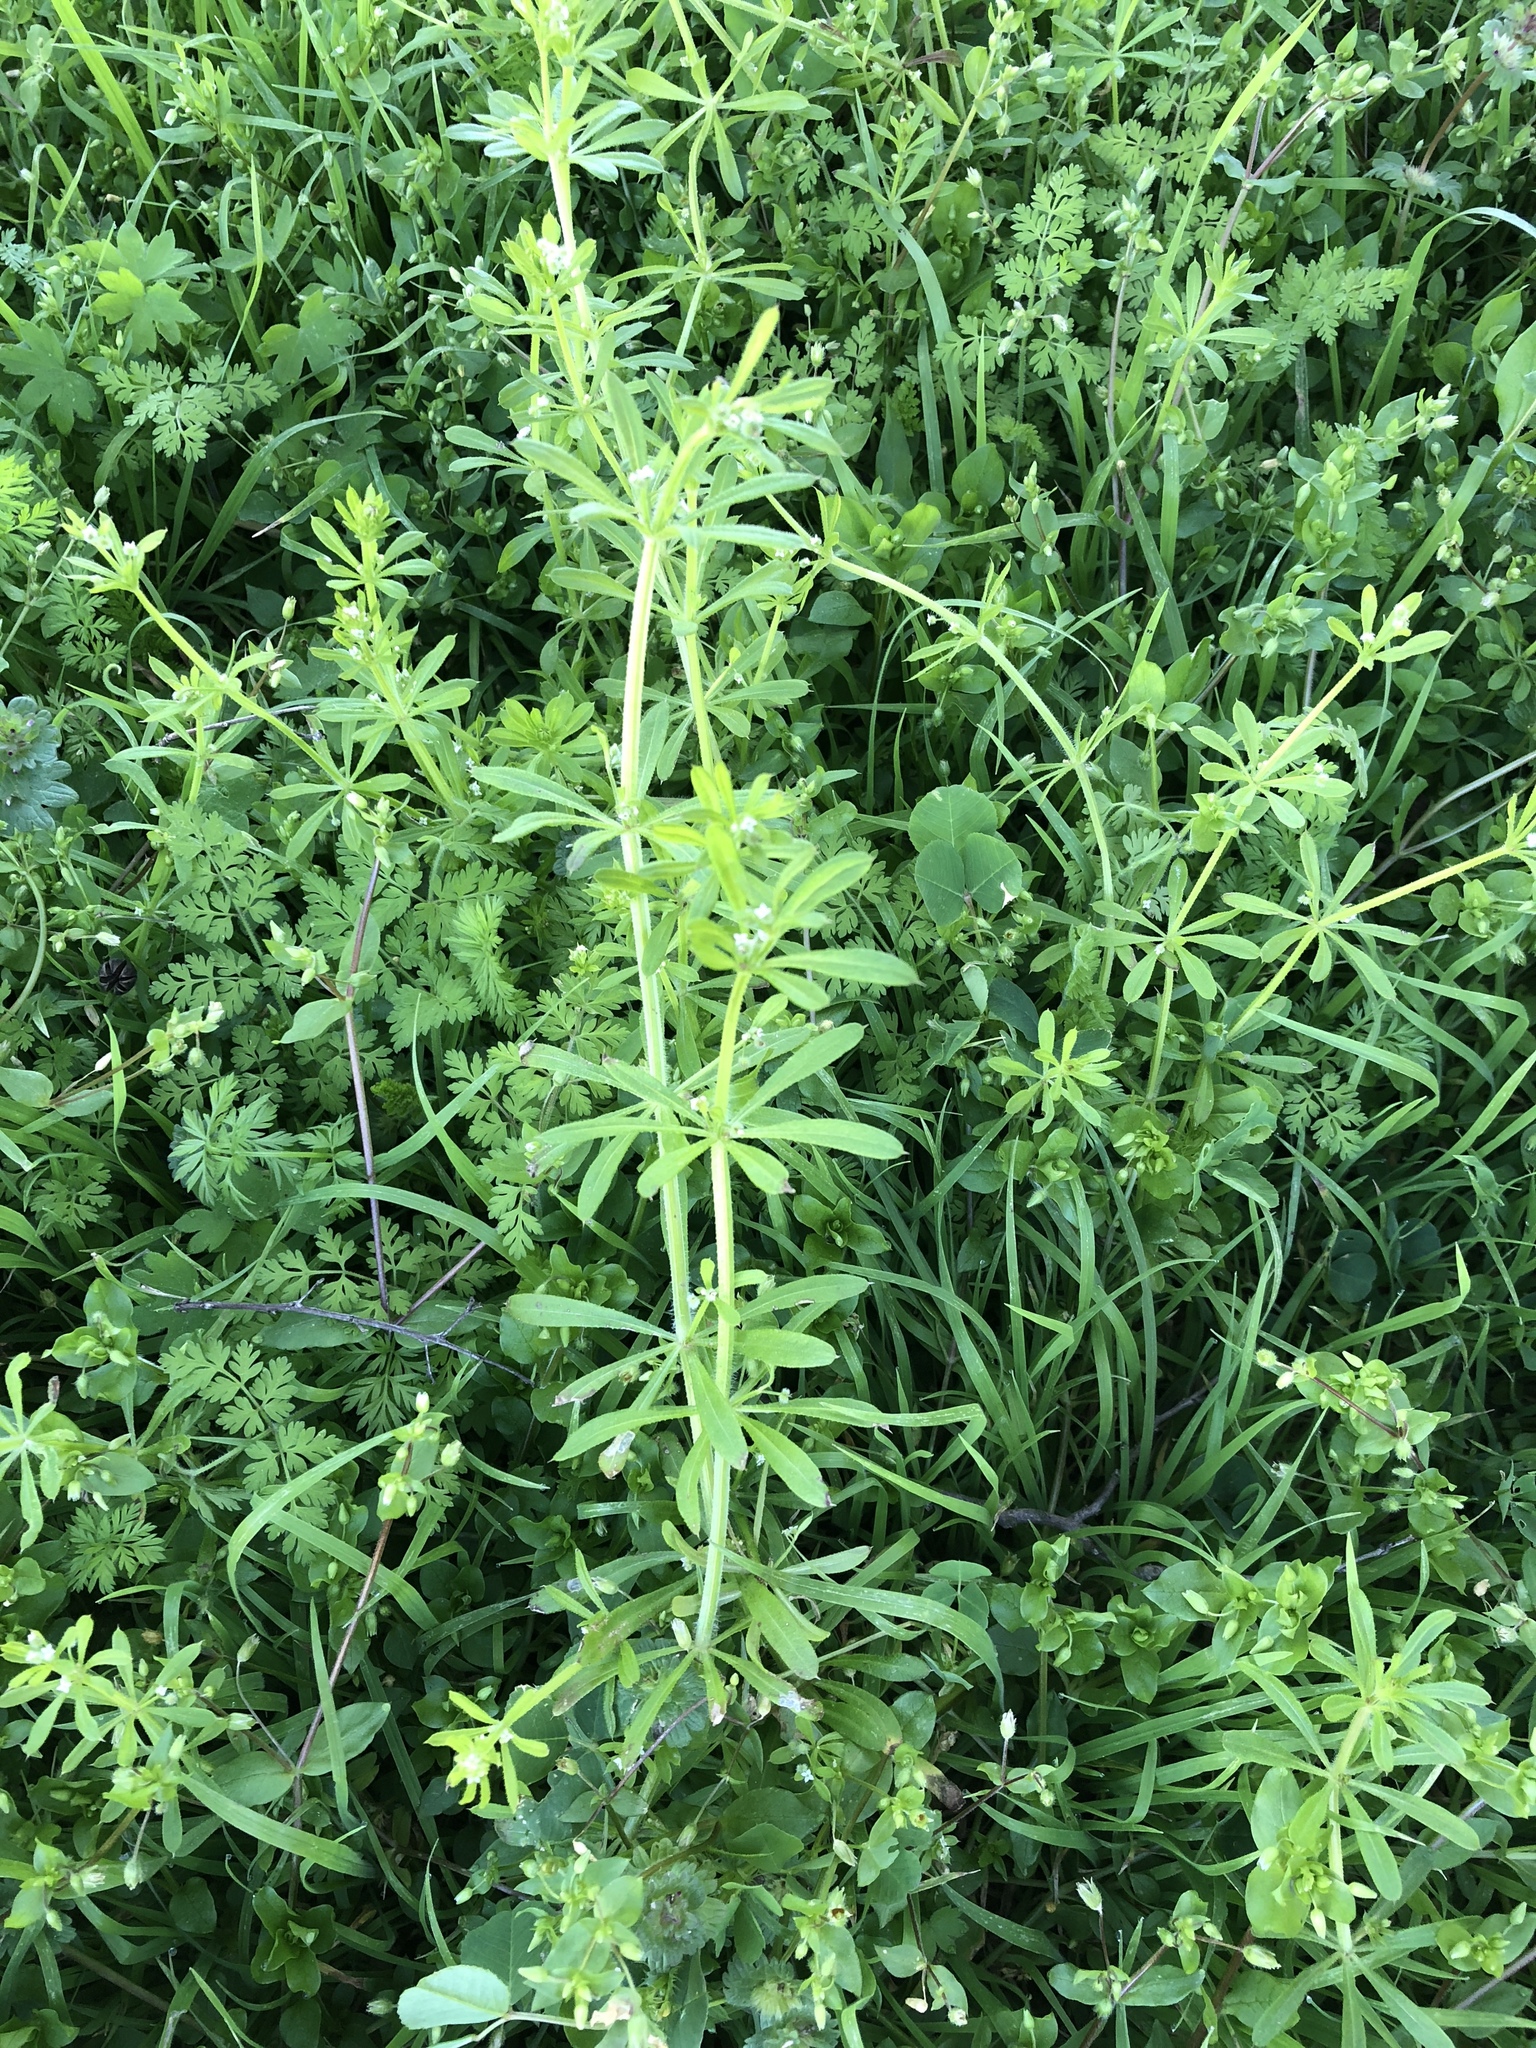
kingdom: Plantae
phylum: Tracheophyta
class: Magnoliopsida
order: Gentianales
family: Rubiaceae
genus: Galium
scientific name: Galium aparine
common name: Cleavers
